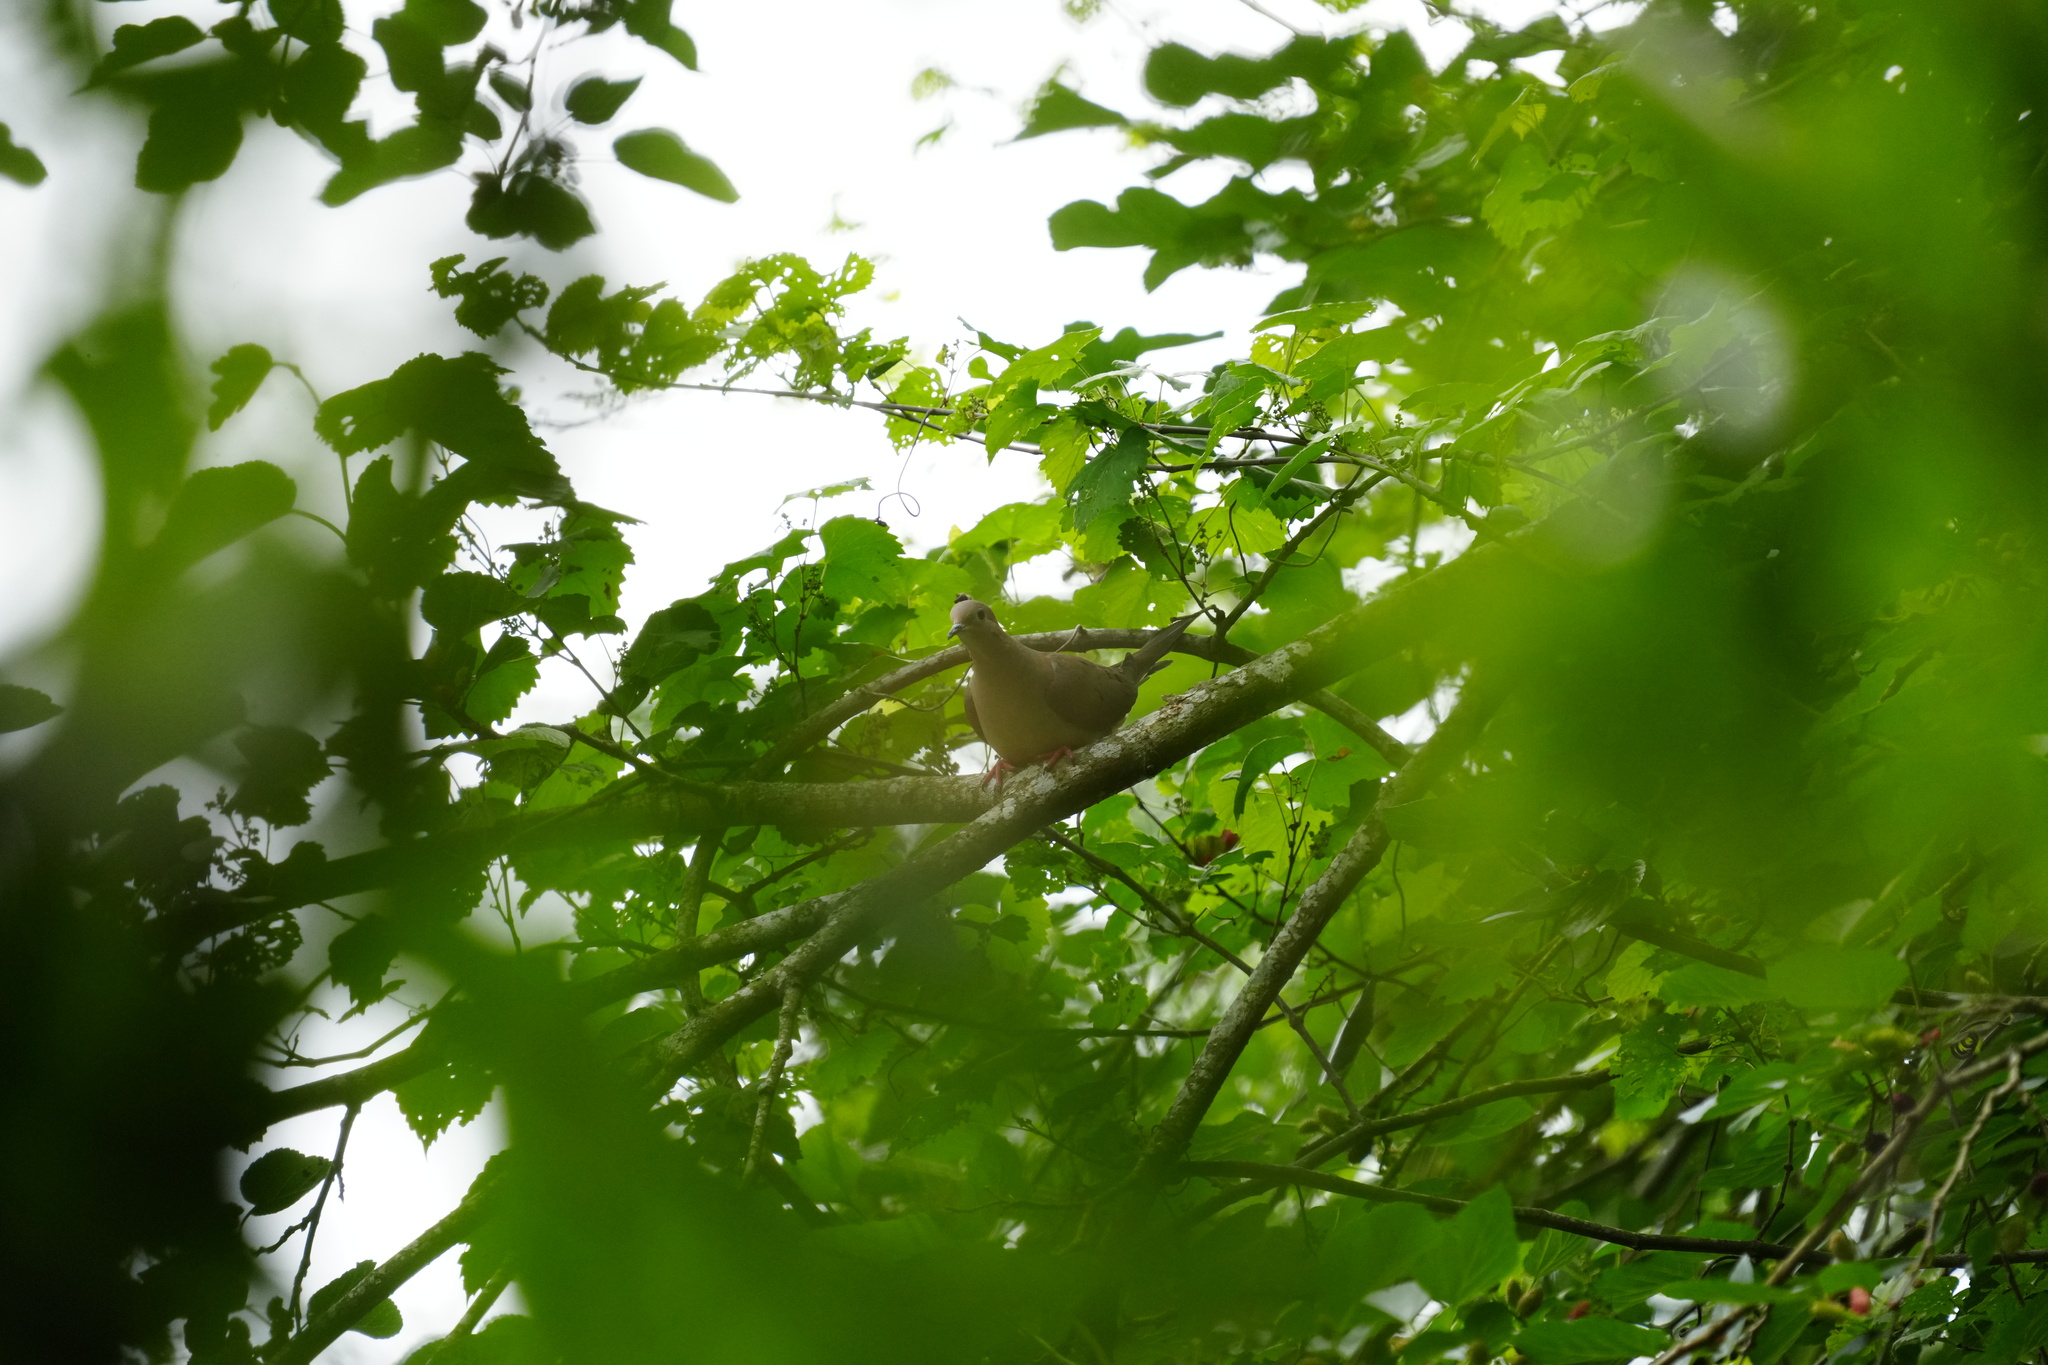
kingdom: Animalia
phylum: Chordata
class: Aves
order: Columbiformes
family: Columbidae
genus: Zenaida
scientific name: Zenaida macroura
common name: Mourning dove
